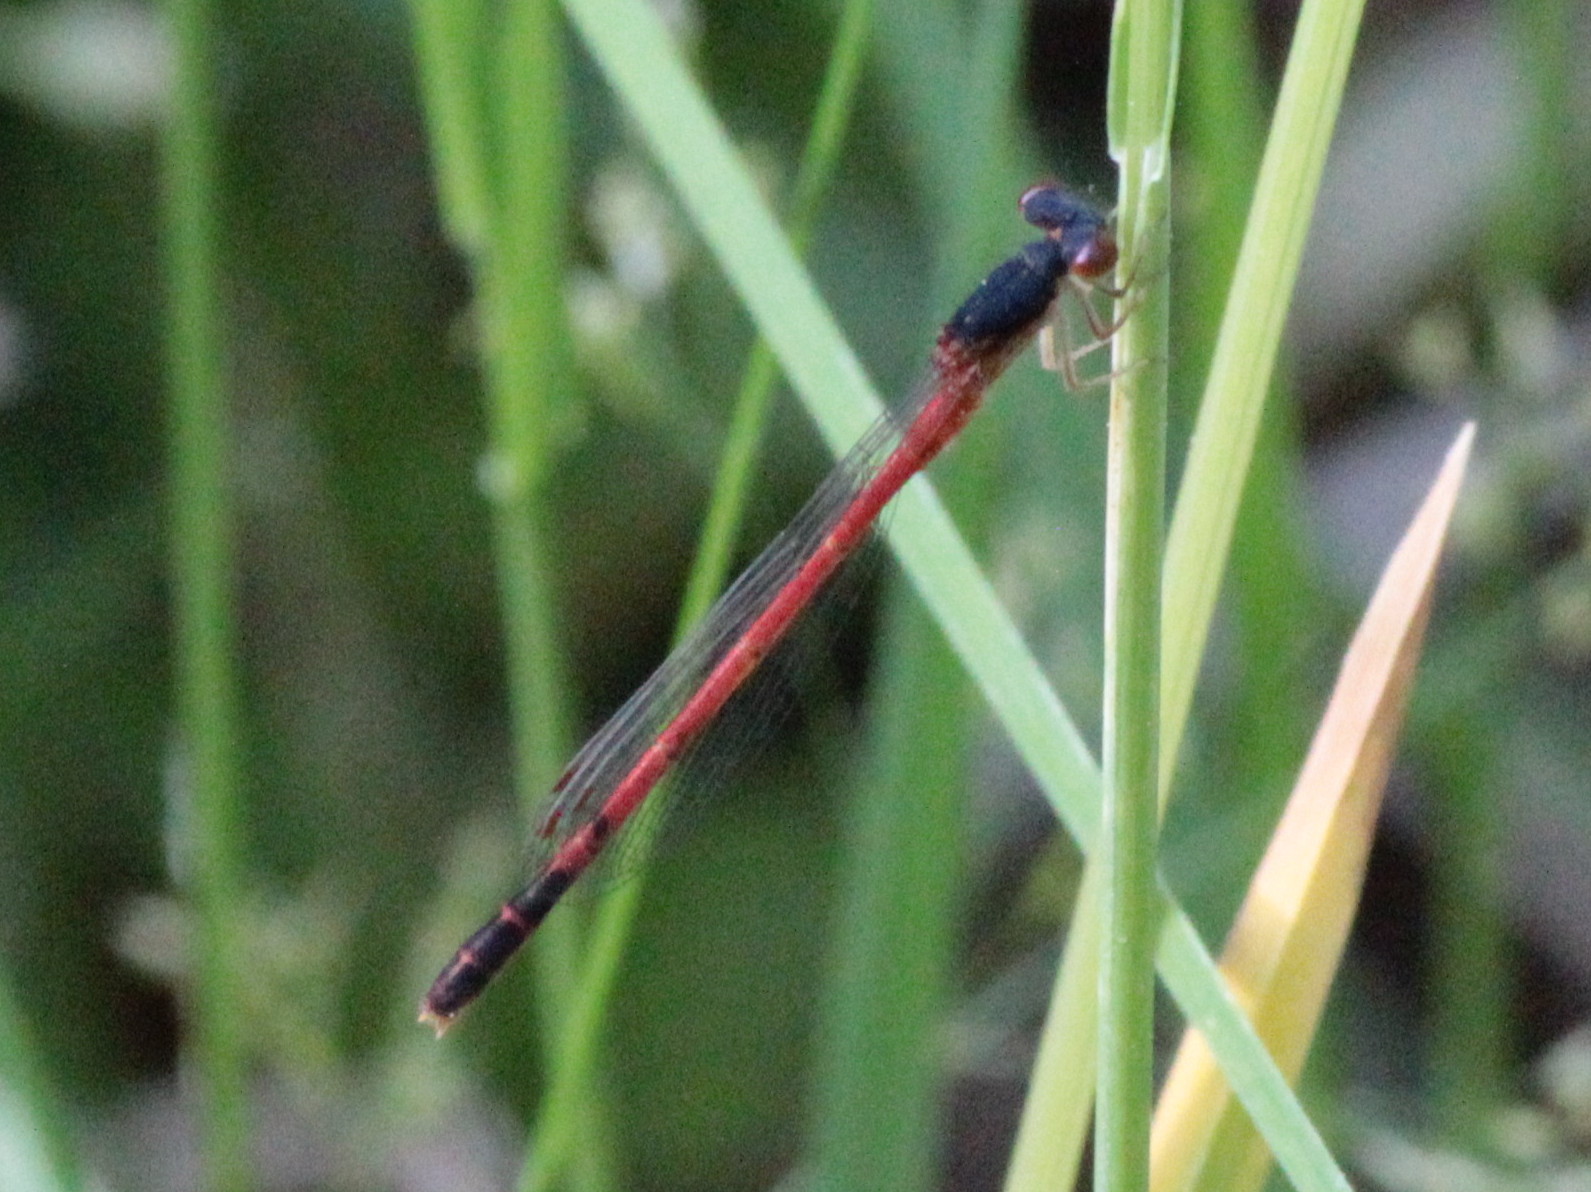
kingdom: Animalia
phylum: Arthropoda
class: Insecta
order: Odonata
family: Coenagrionidae
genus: Amphiagrion
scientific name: Amphiagrion saucium
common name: Eastern red damsel
